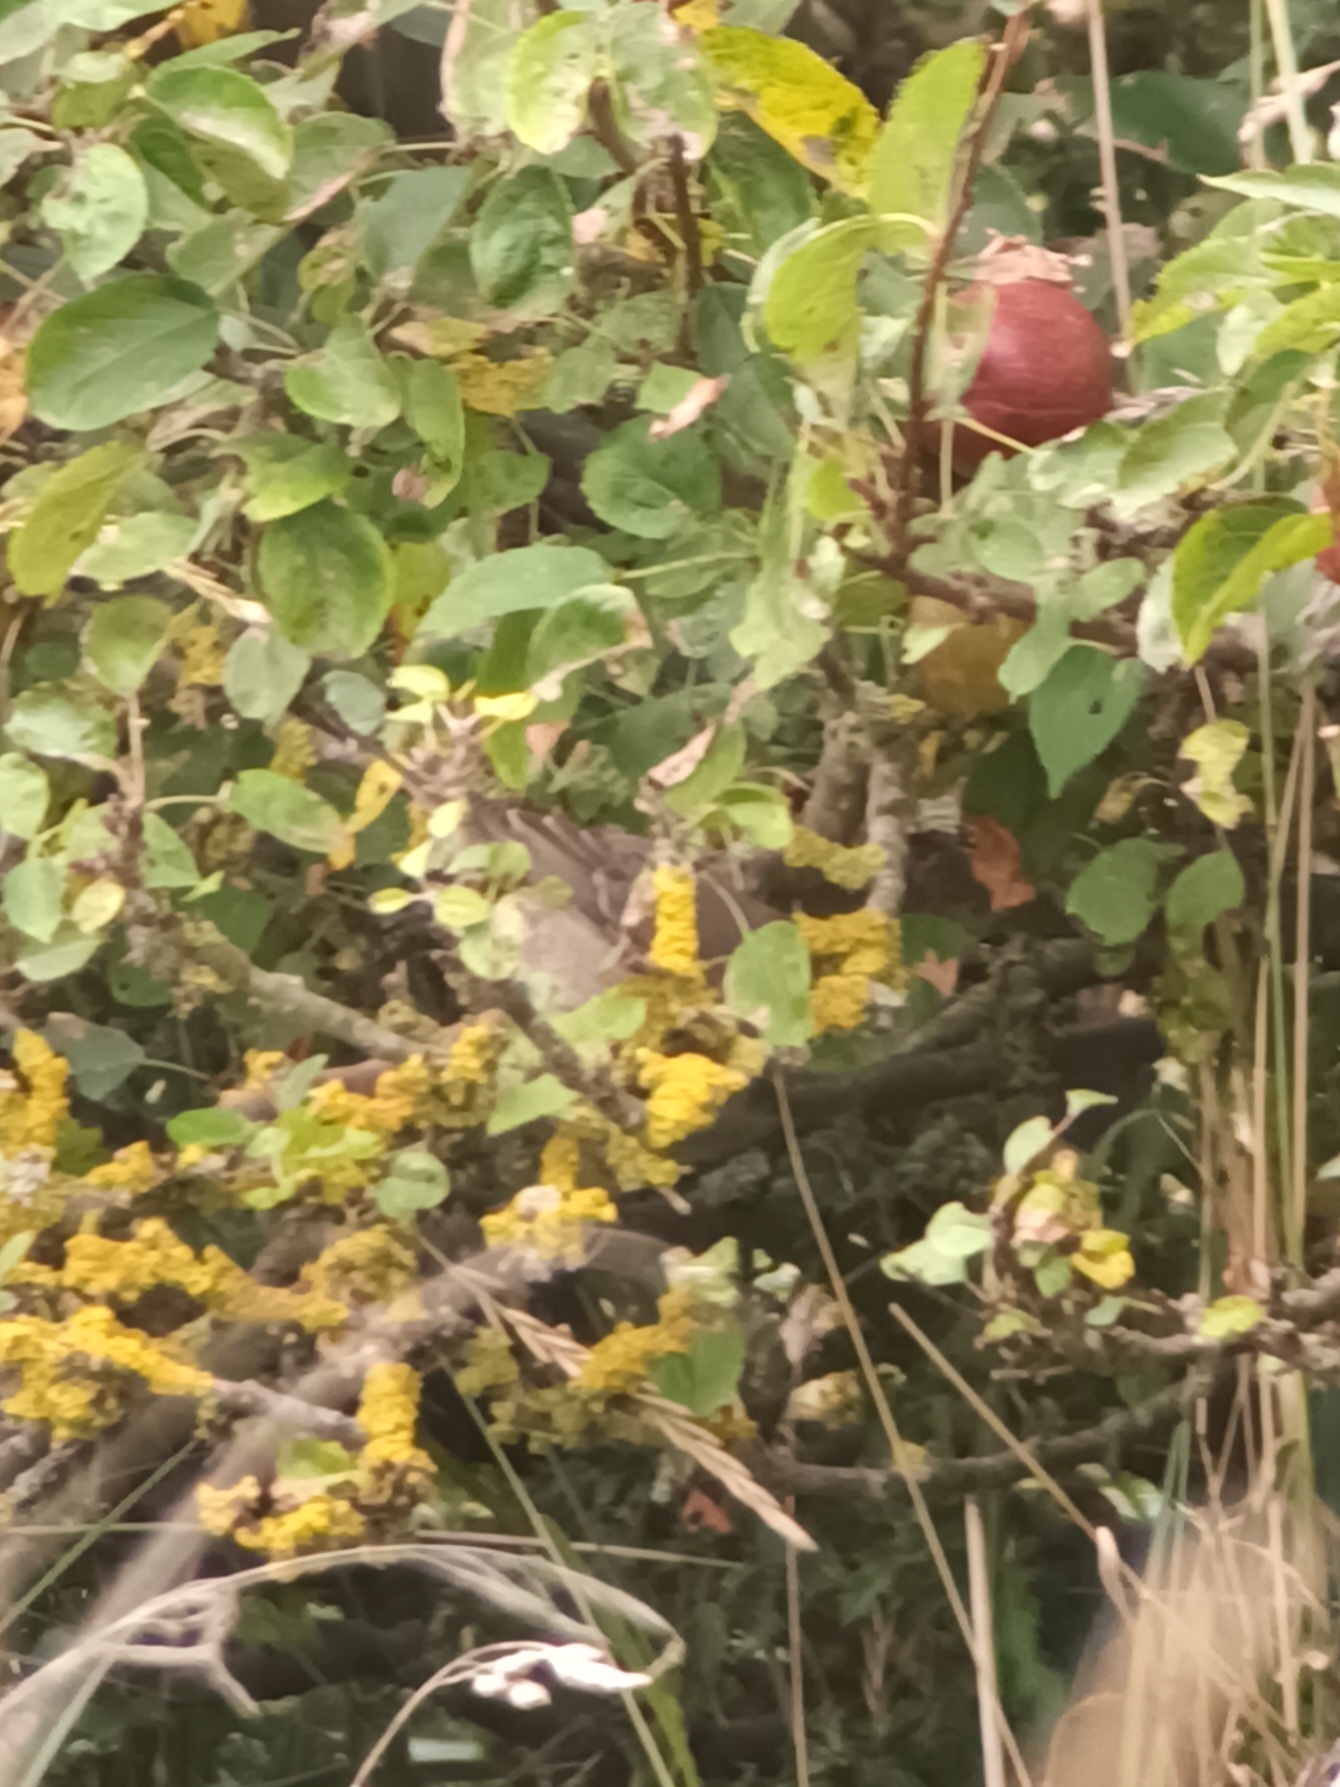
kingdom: Animalia
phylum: Chordata
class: Aves
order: Passeriformes
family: Sylviidae
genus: Sylvia
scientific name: Sylvia nisoria
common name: Barred warbler
